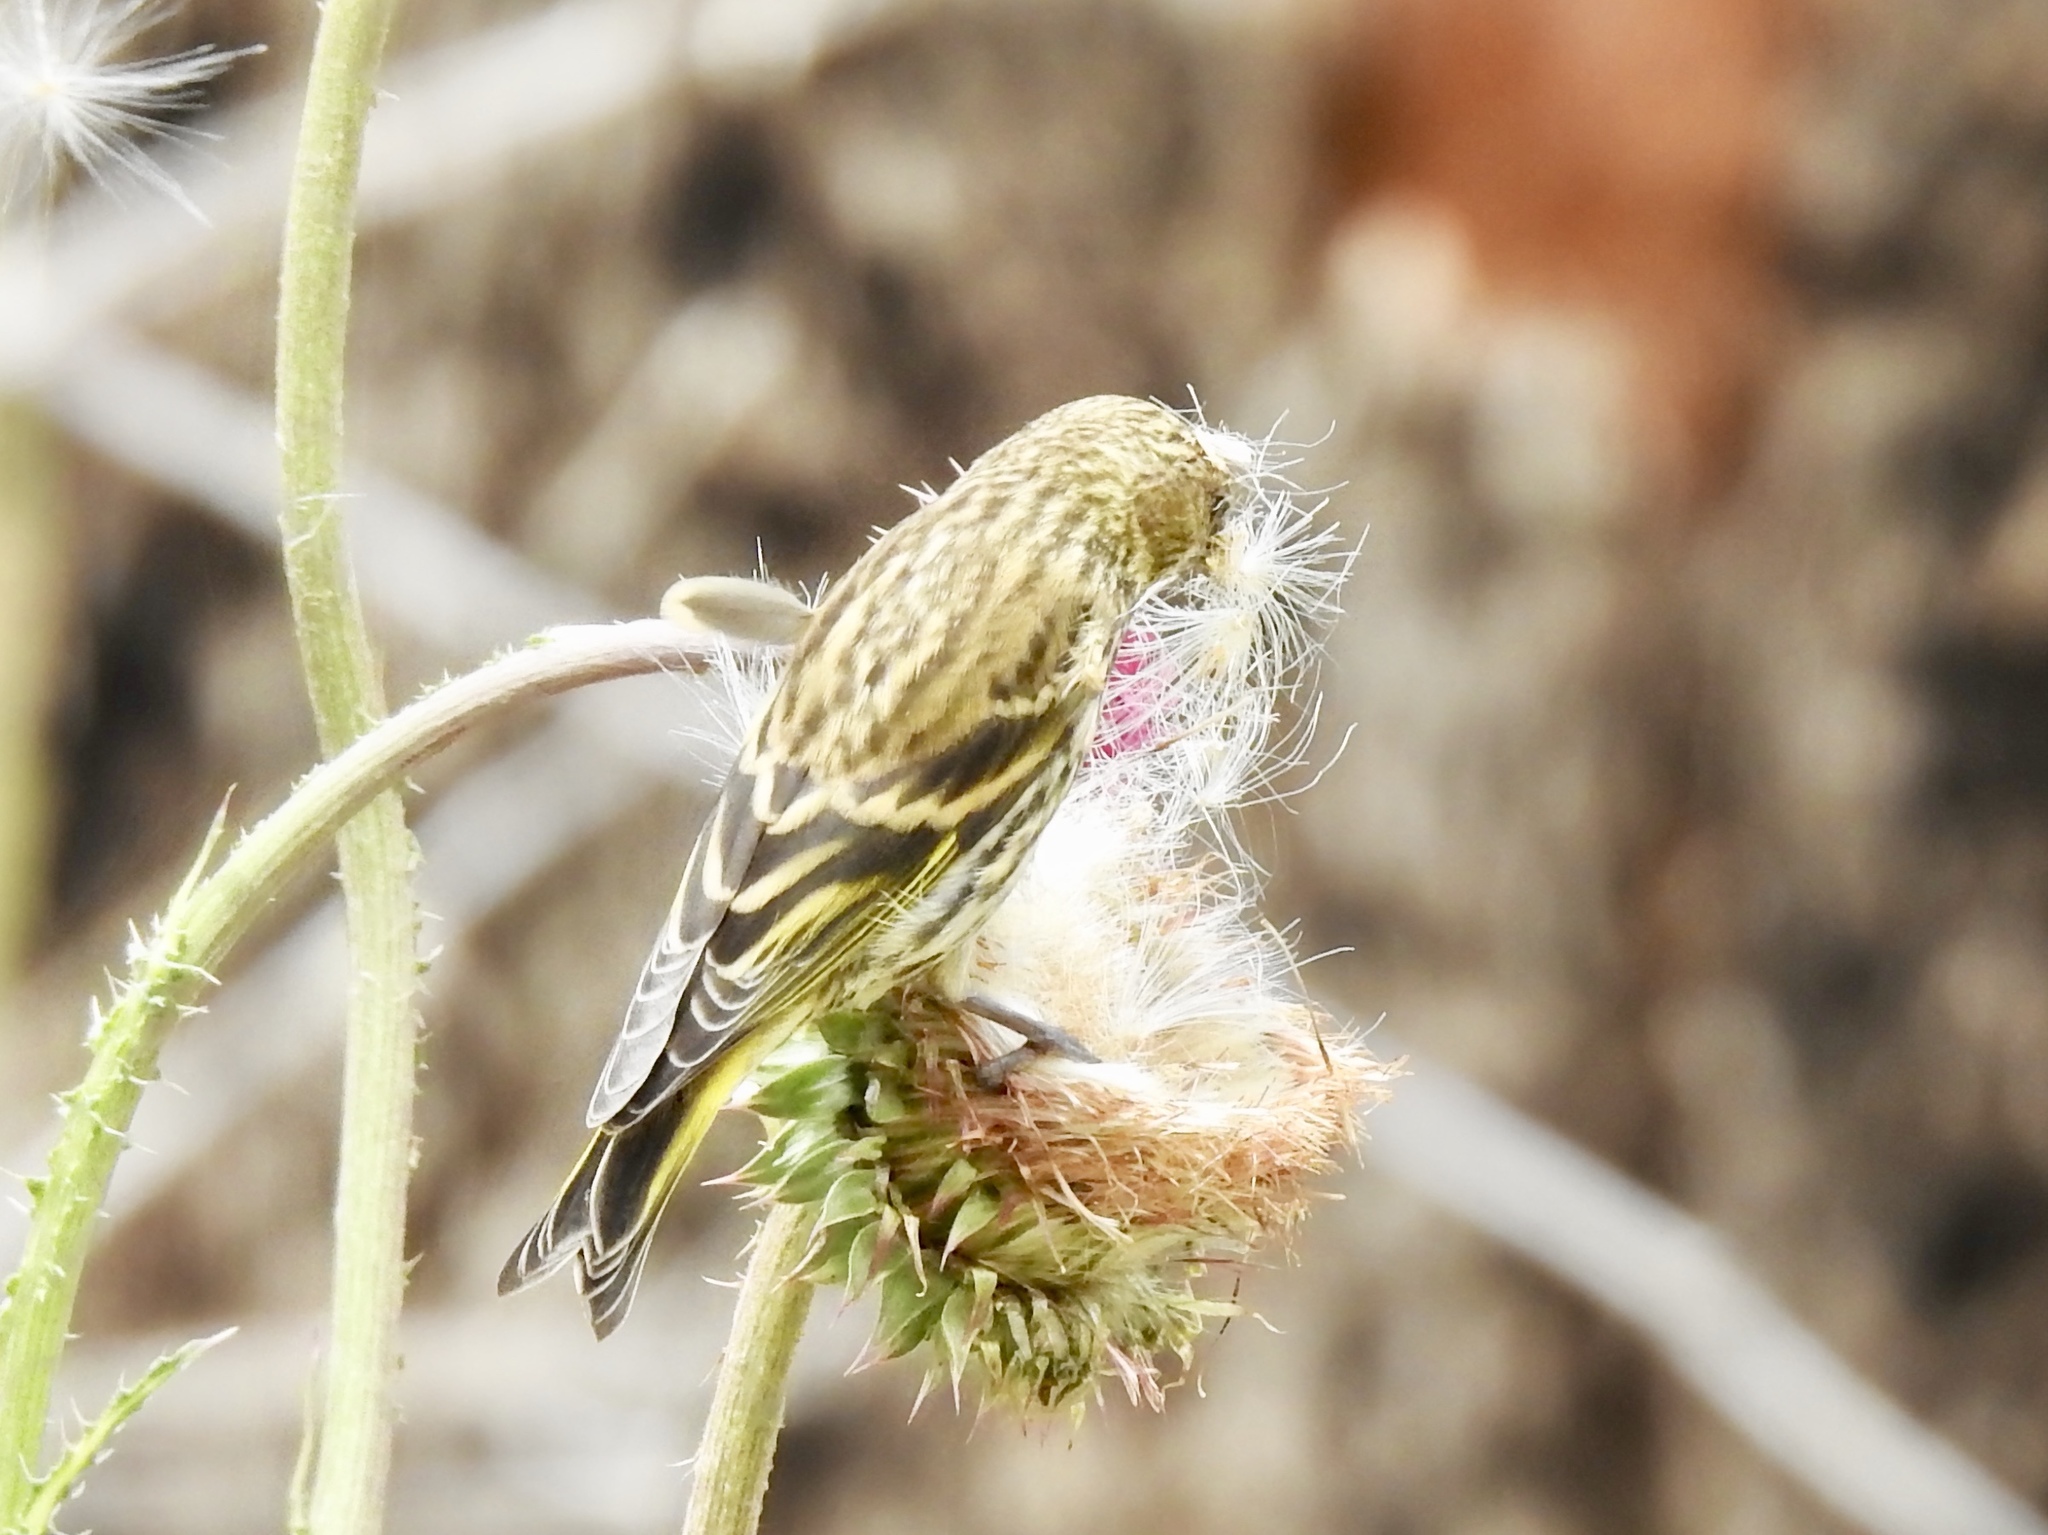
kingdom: Animalia
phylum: Chordata
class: Aves
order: Passeriformes
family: Fringillidae
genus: Spinus
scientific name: Spinus pinus
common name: Pine siskin
